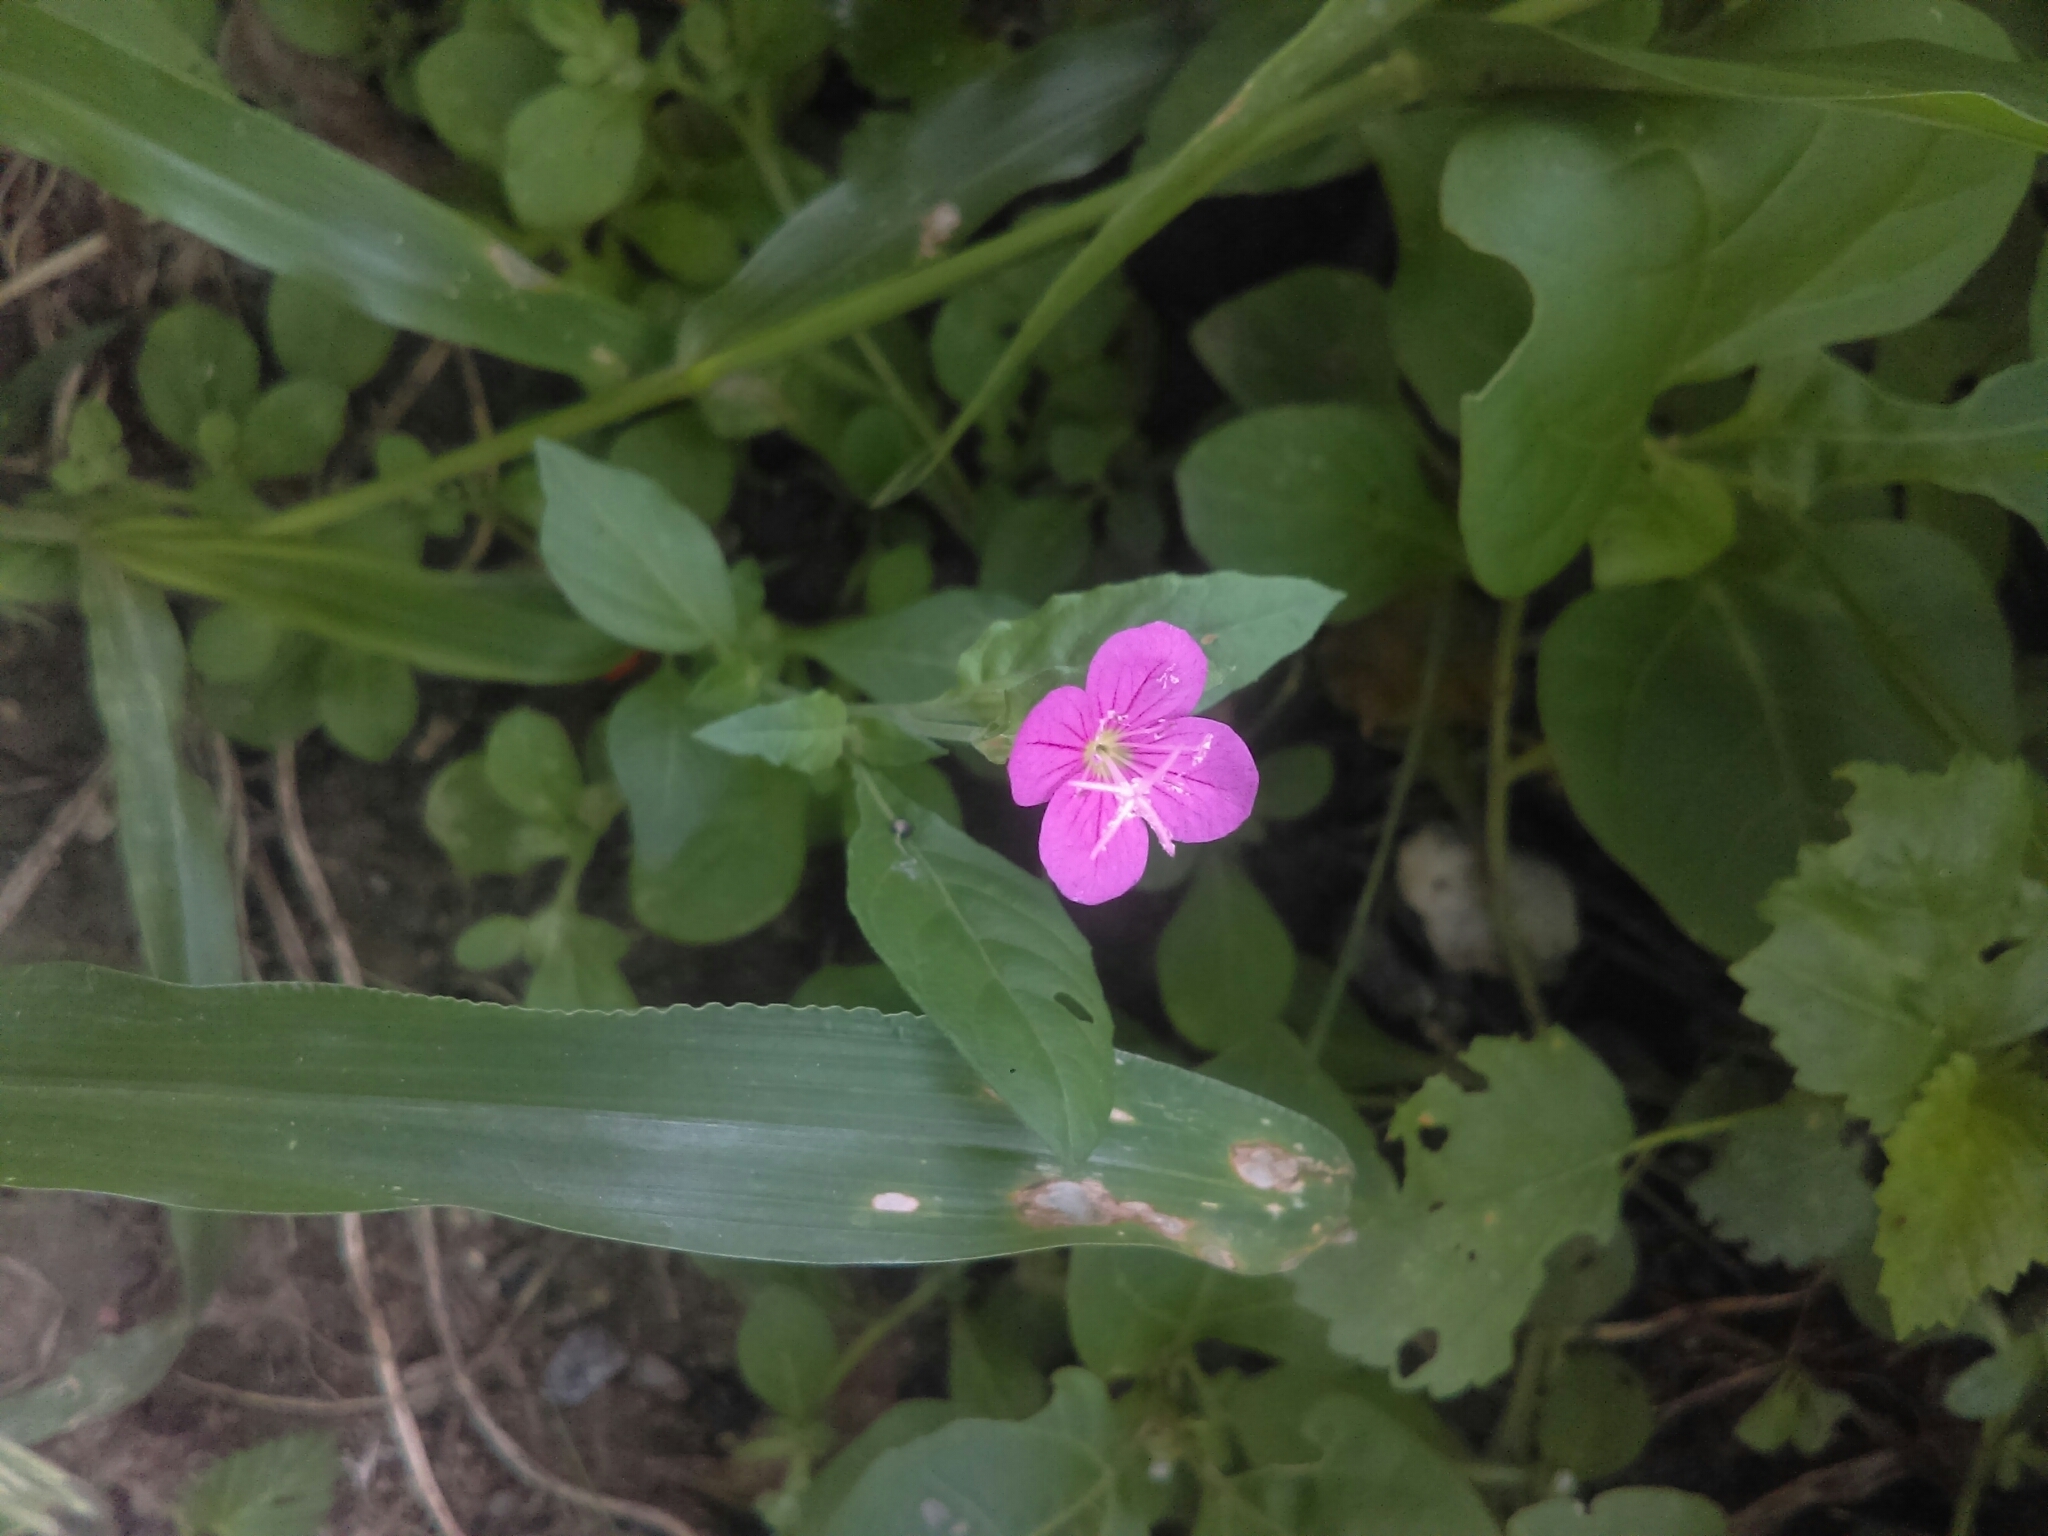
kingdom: Plantae
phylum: Tracheophyta
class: Magnoliopsida
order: Myrtales
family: Onagraceae
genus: Oenothera
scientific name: Oenothera rosea
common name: Rosy evening-primrose
